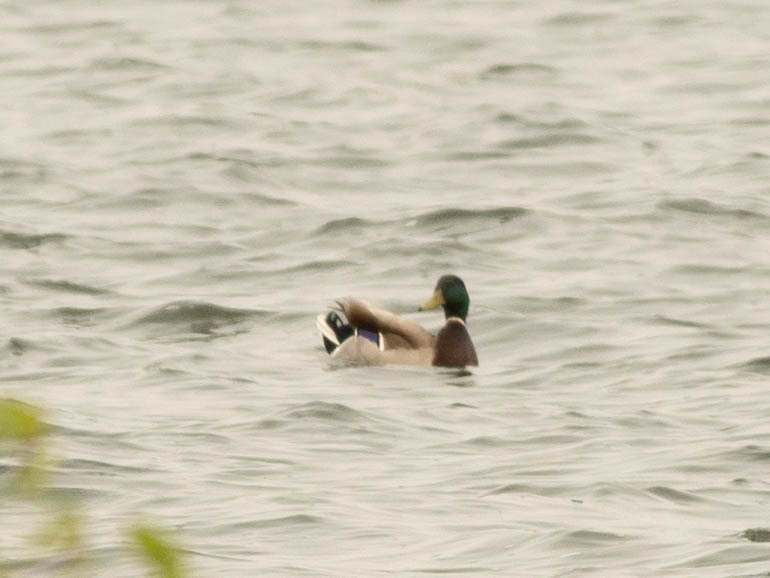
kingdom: Animalia
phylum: Chordata
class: Aves
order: Anseriformes
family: Anatidae
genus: Anas
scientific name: Anas platyrhynchos
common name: Mallard
